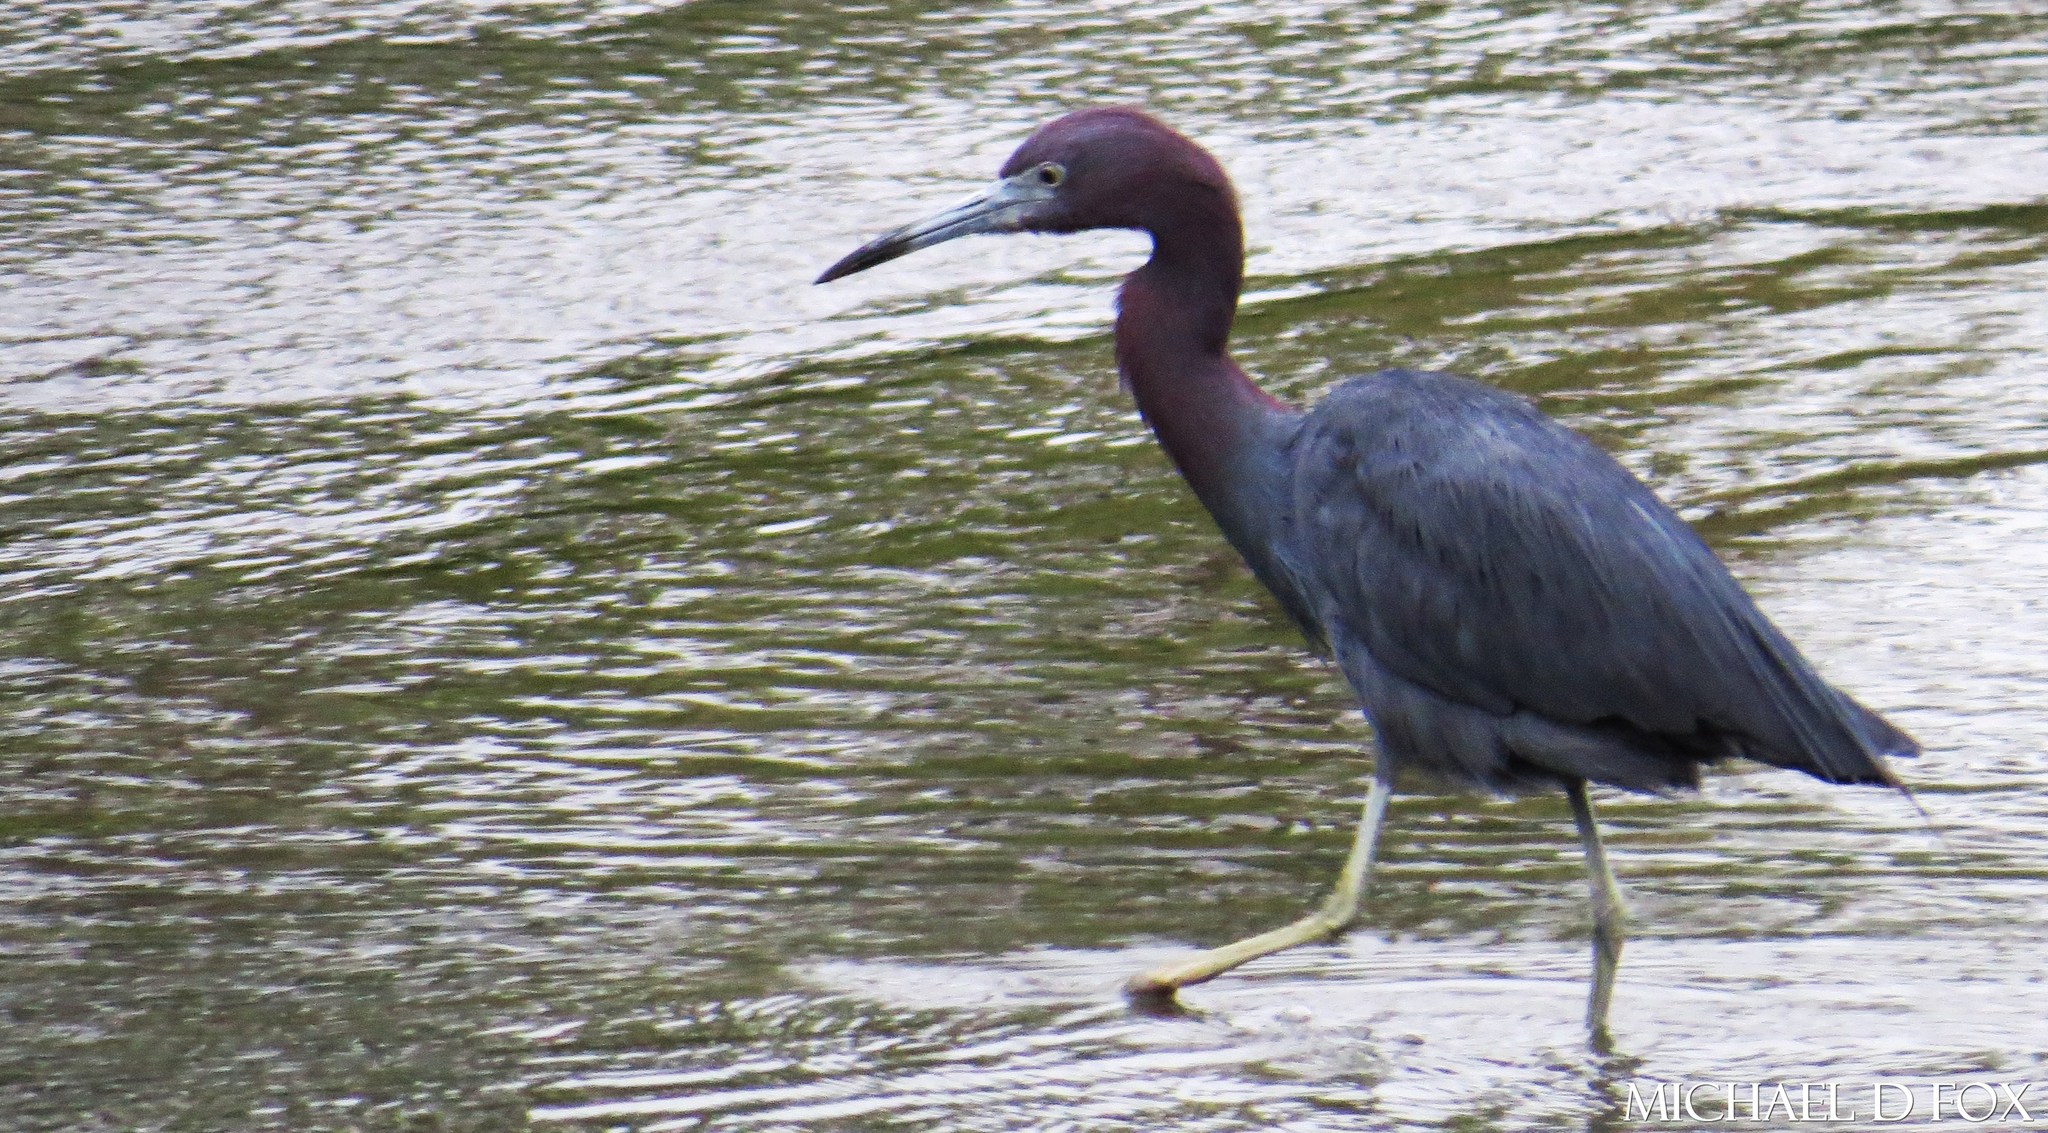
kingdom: Animalia
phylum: Chordata
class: Aves
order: Pelecaniformes
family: Ardeidae
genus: Egretta
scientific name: Egretta caerulea
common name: Little blue heron
